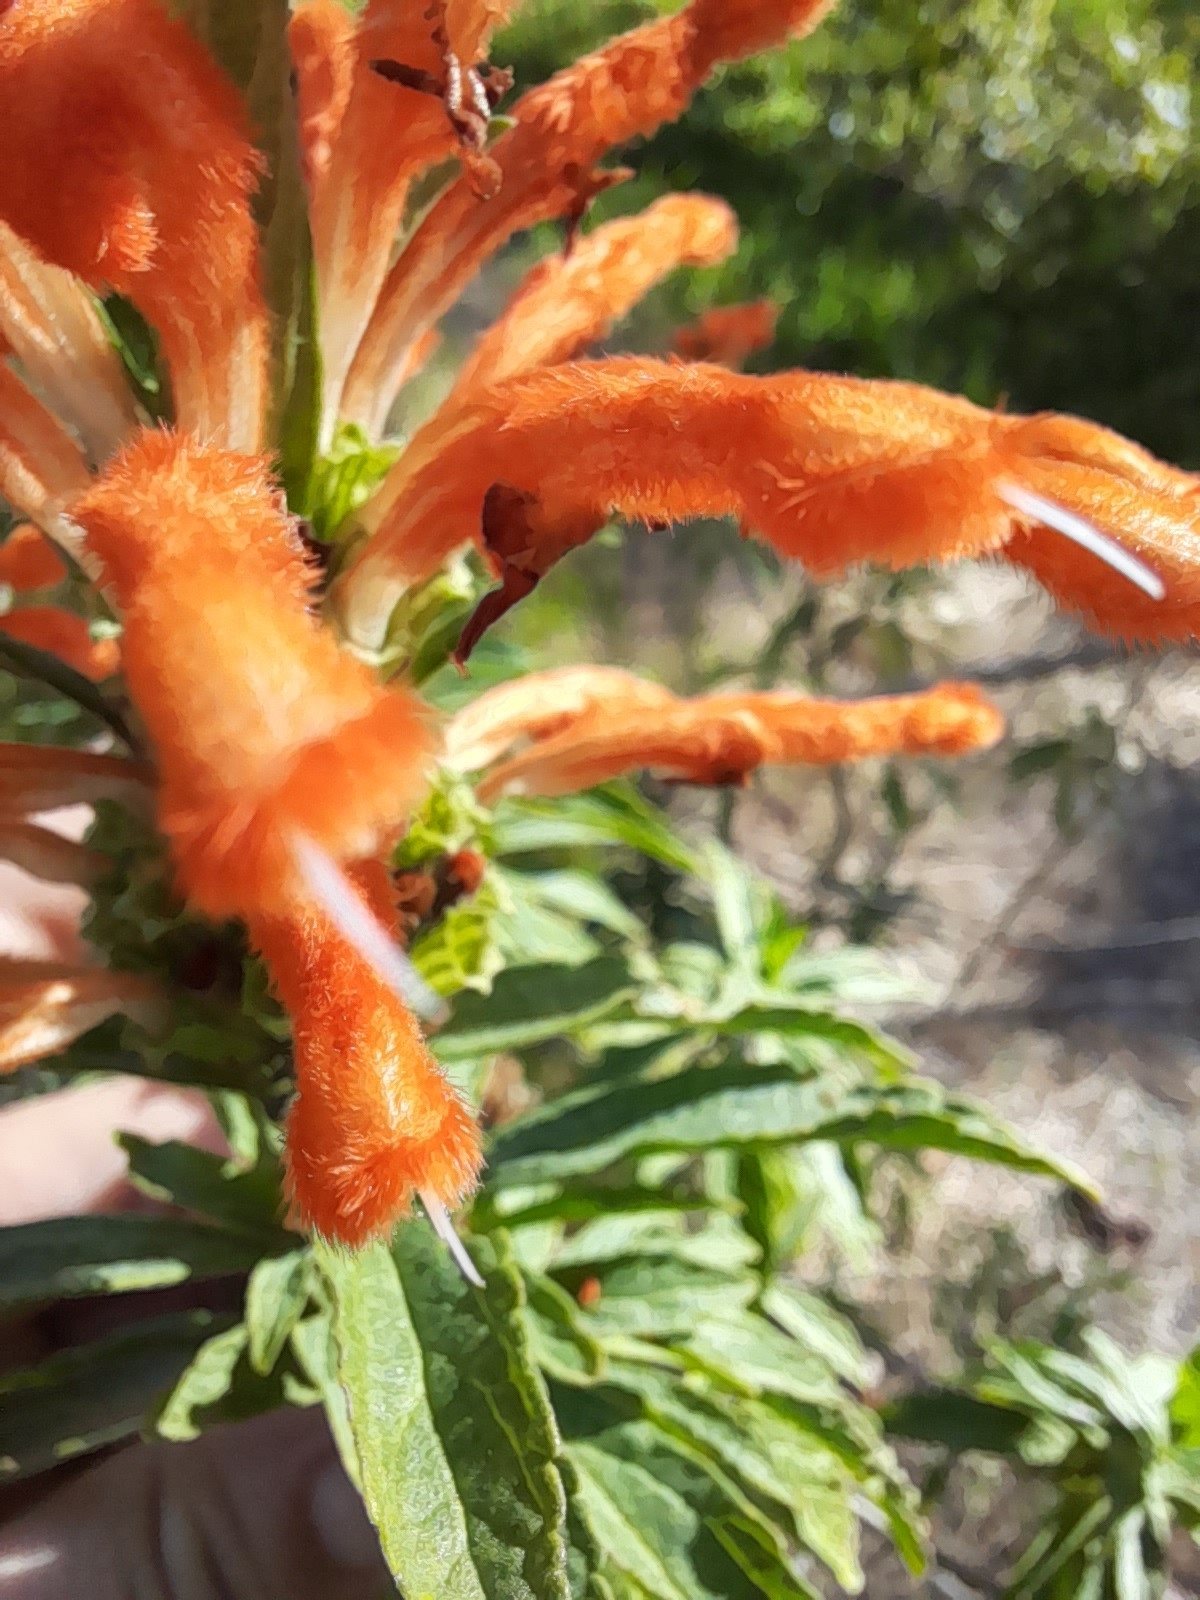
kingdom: Plantae
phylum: Tracheophyta
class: Magnoliopsida
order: Lamiales
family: Lamiaceae
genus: Leonotis
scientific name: Leonotis leonurus
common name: Lion's ear
